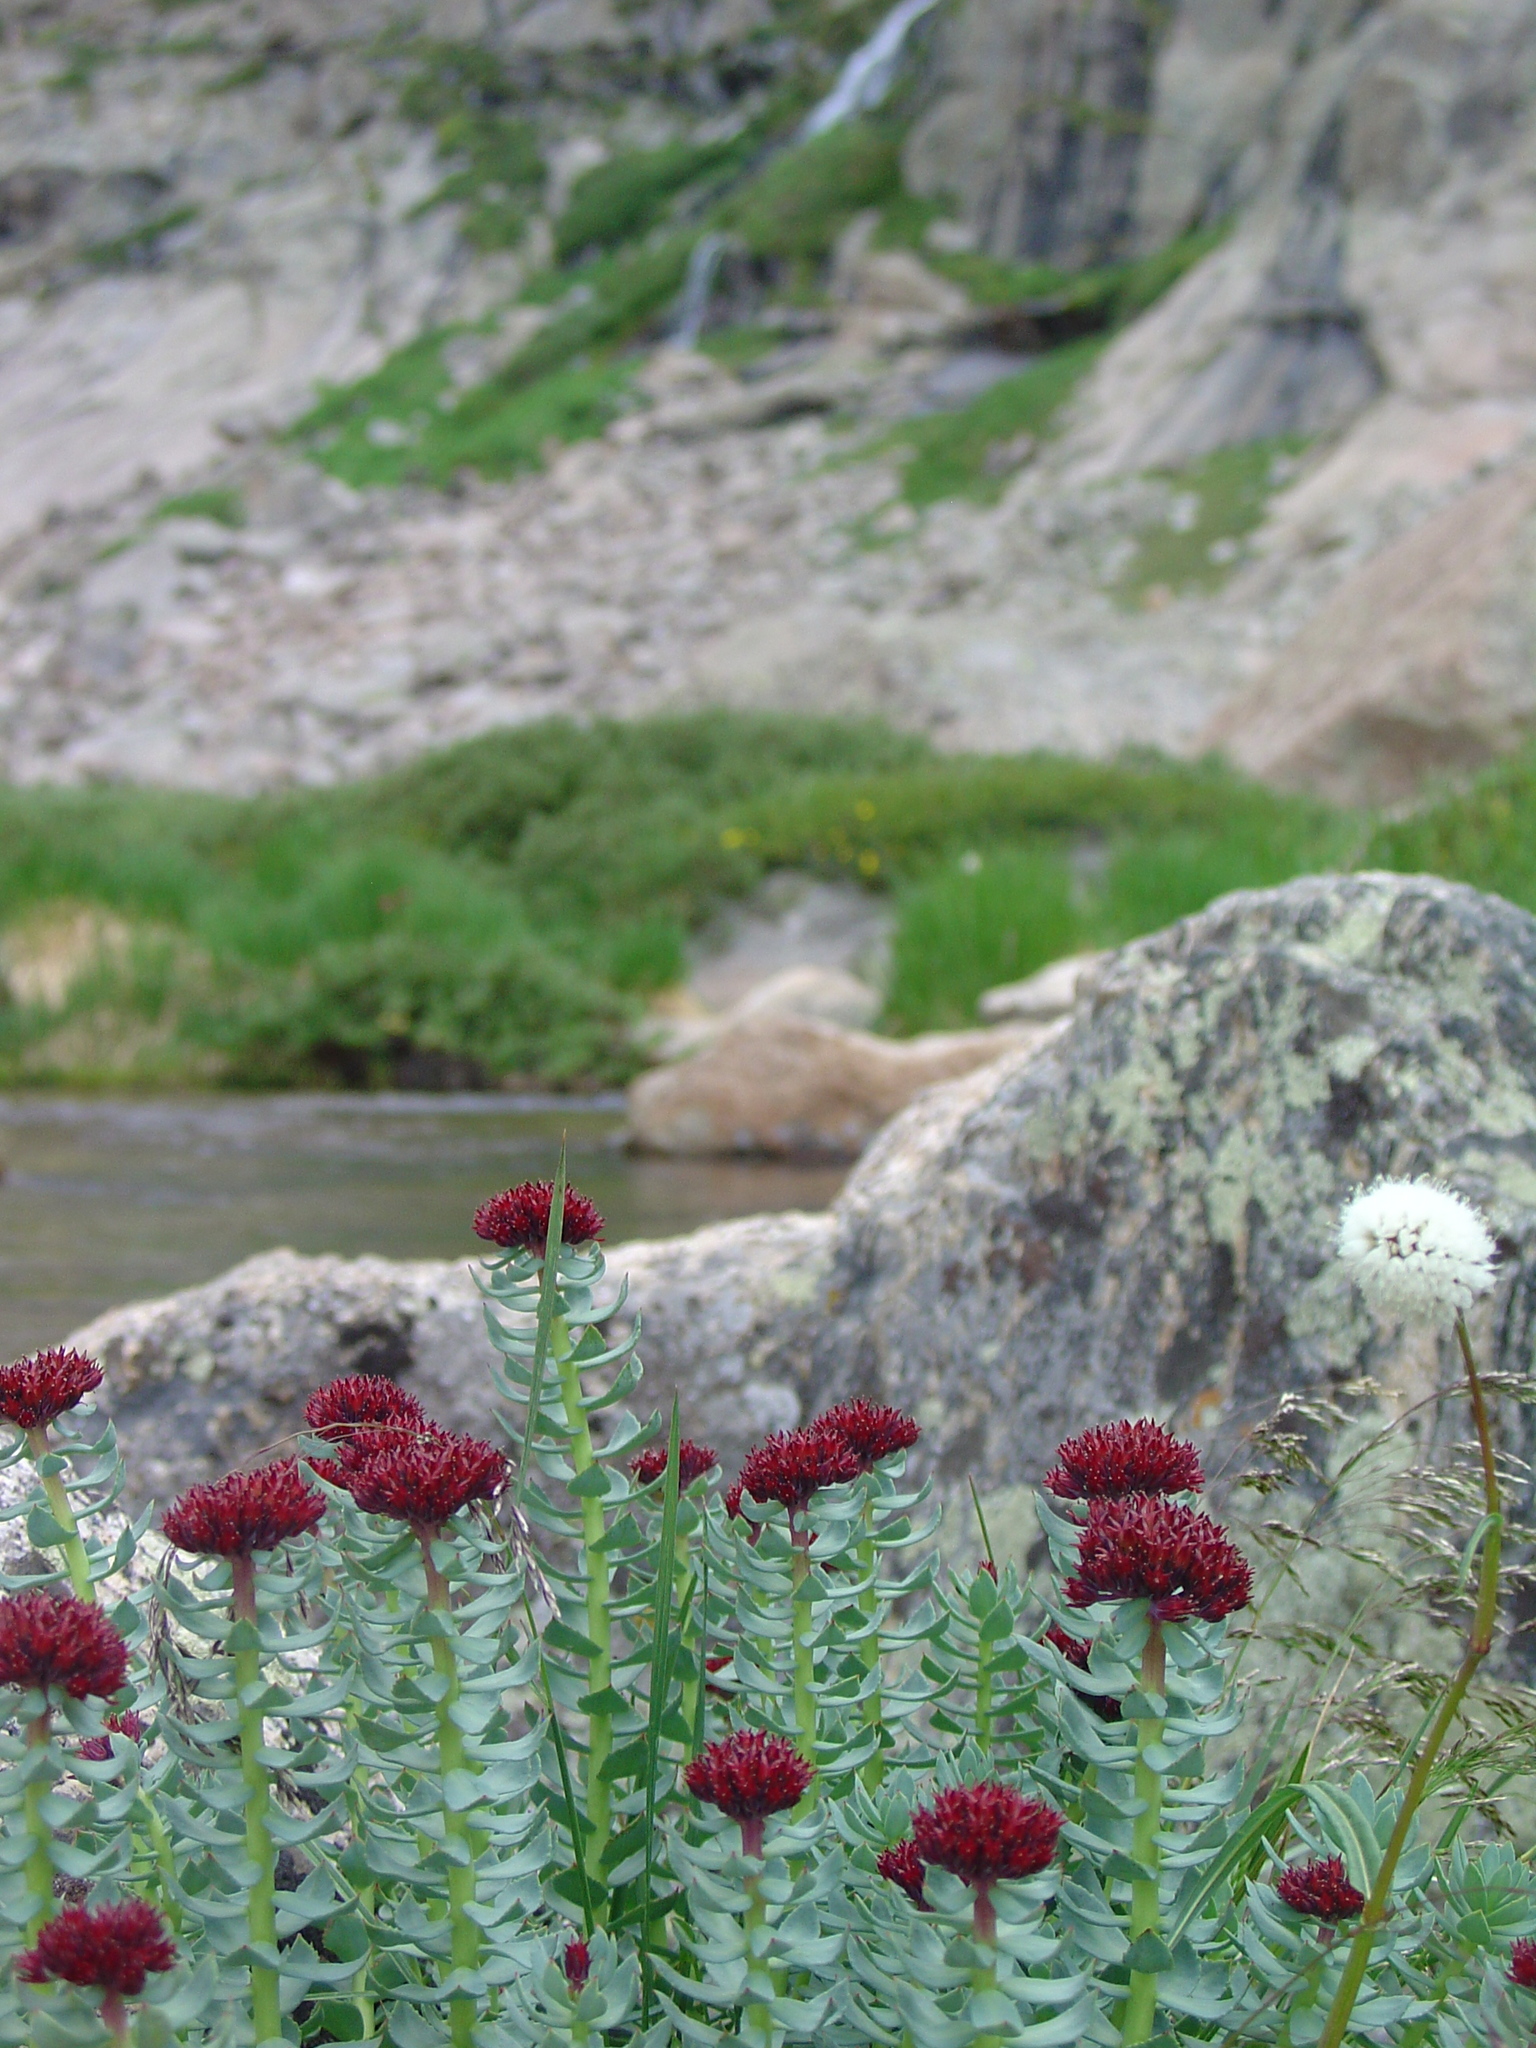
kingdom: Plantae
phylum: Tracheophyta
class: Magnoliopsida
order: Saxifragales
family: Crassulaceae
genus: Rhodiola
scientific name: Rhodiola integrifolia
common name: Western roseroot
